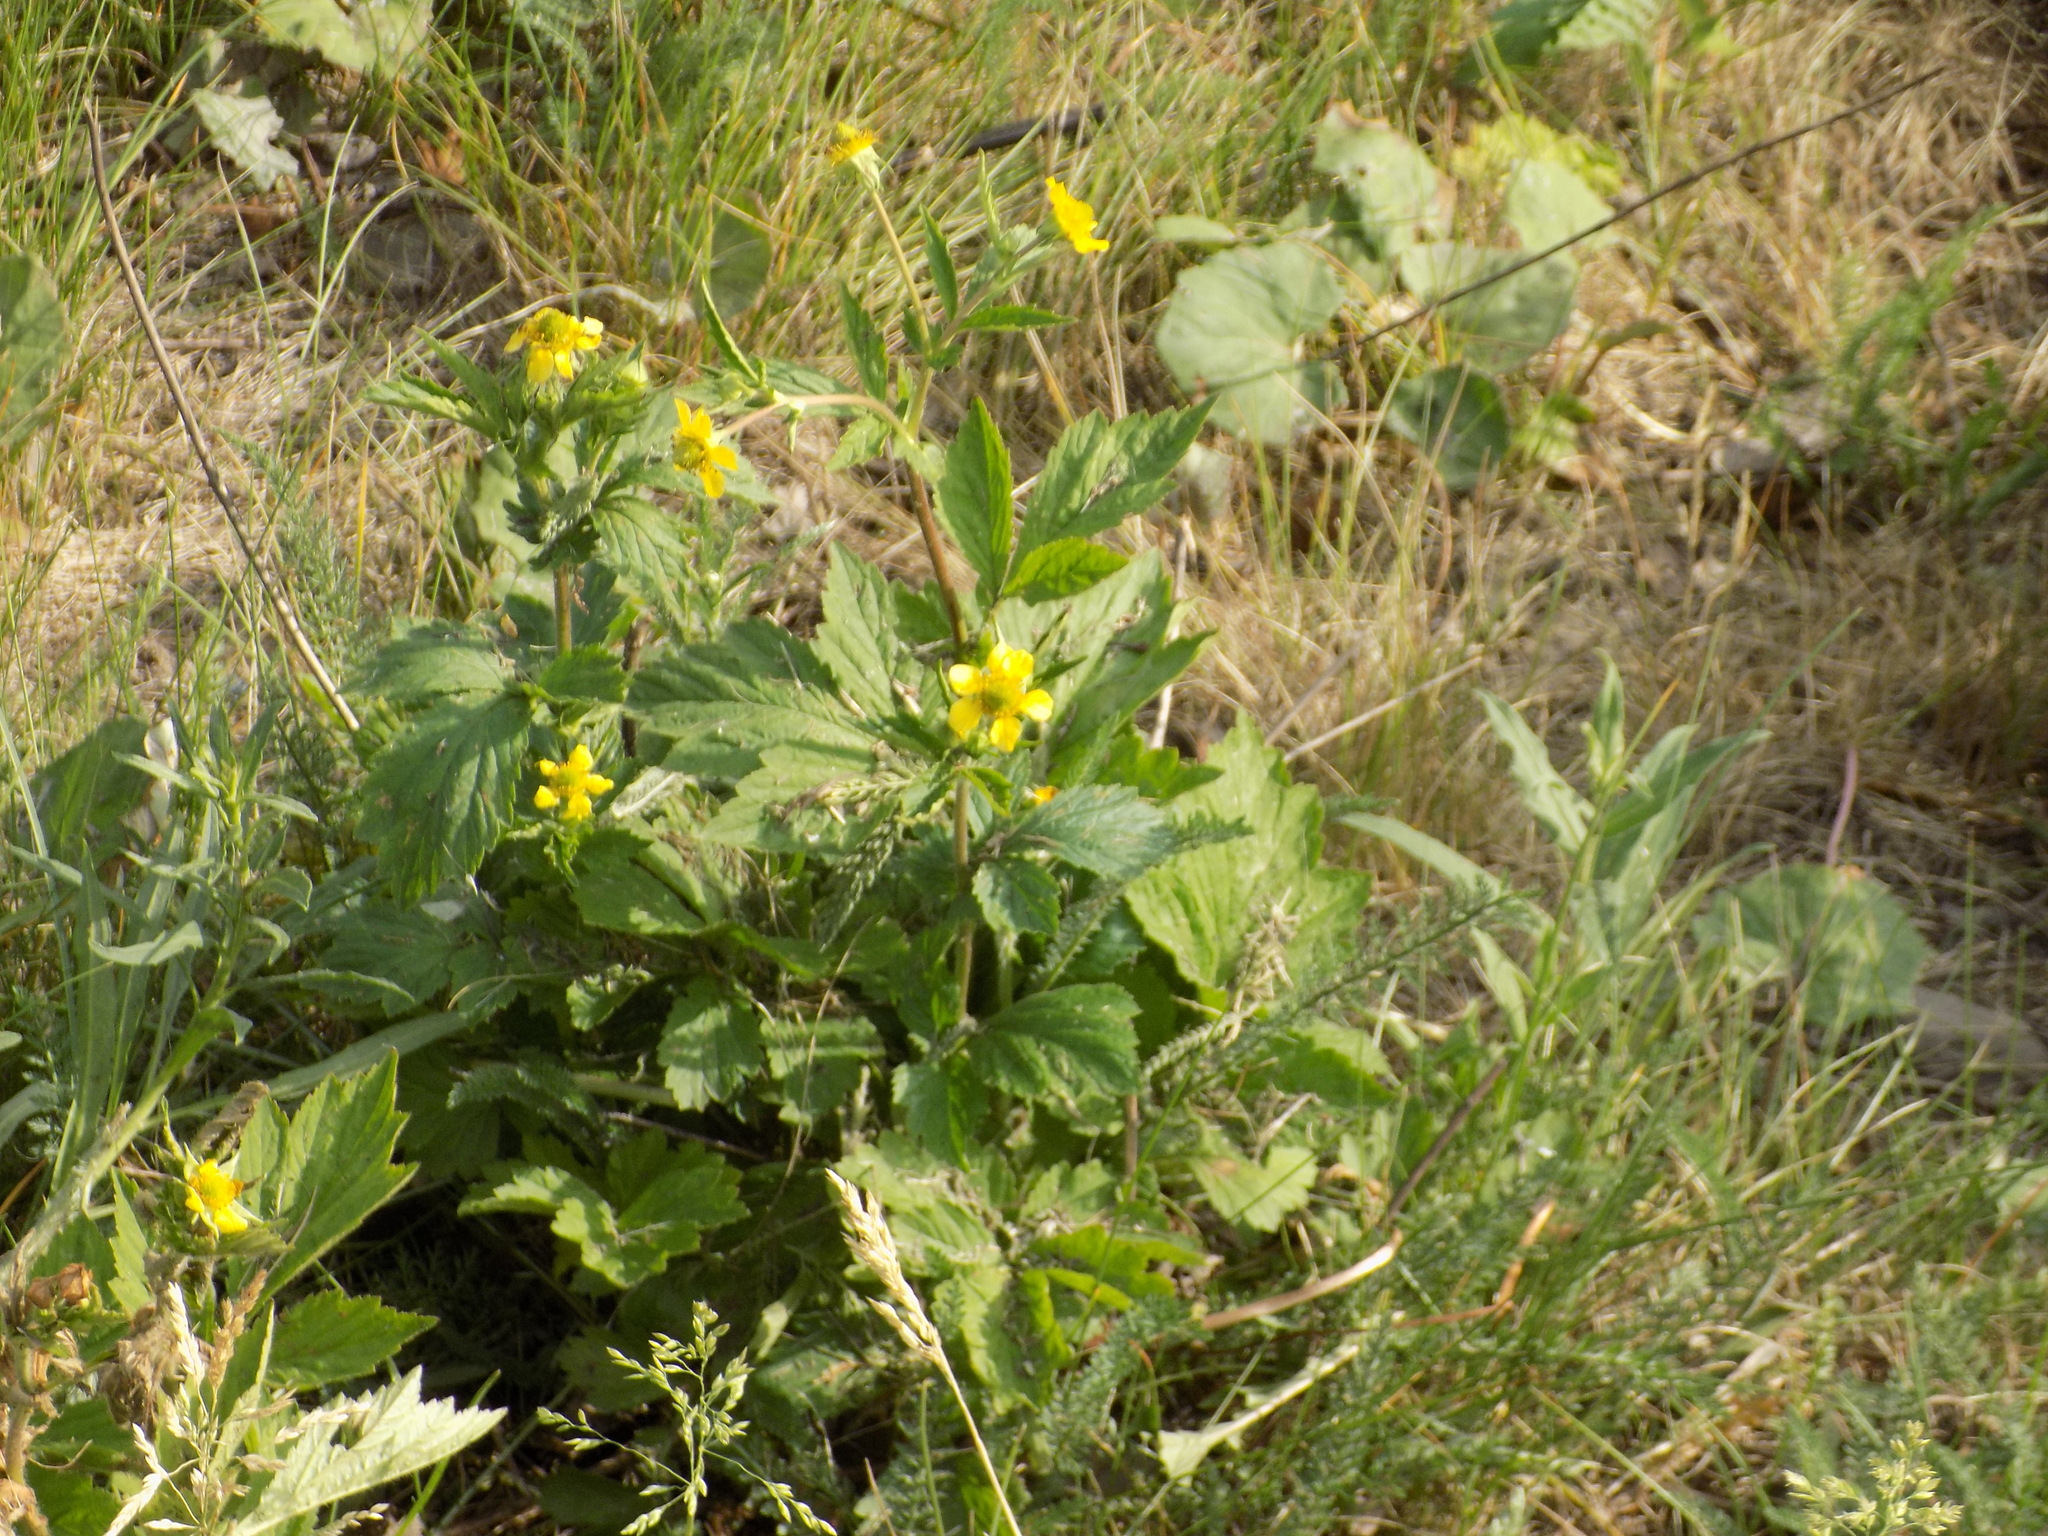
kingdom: Plantae
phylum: Tracheophyta
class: Magnoliopsida
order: Rosales
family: Rosaceae
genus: Geum
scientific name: Geum aleppicum
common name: Yellow avens
